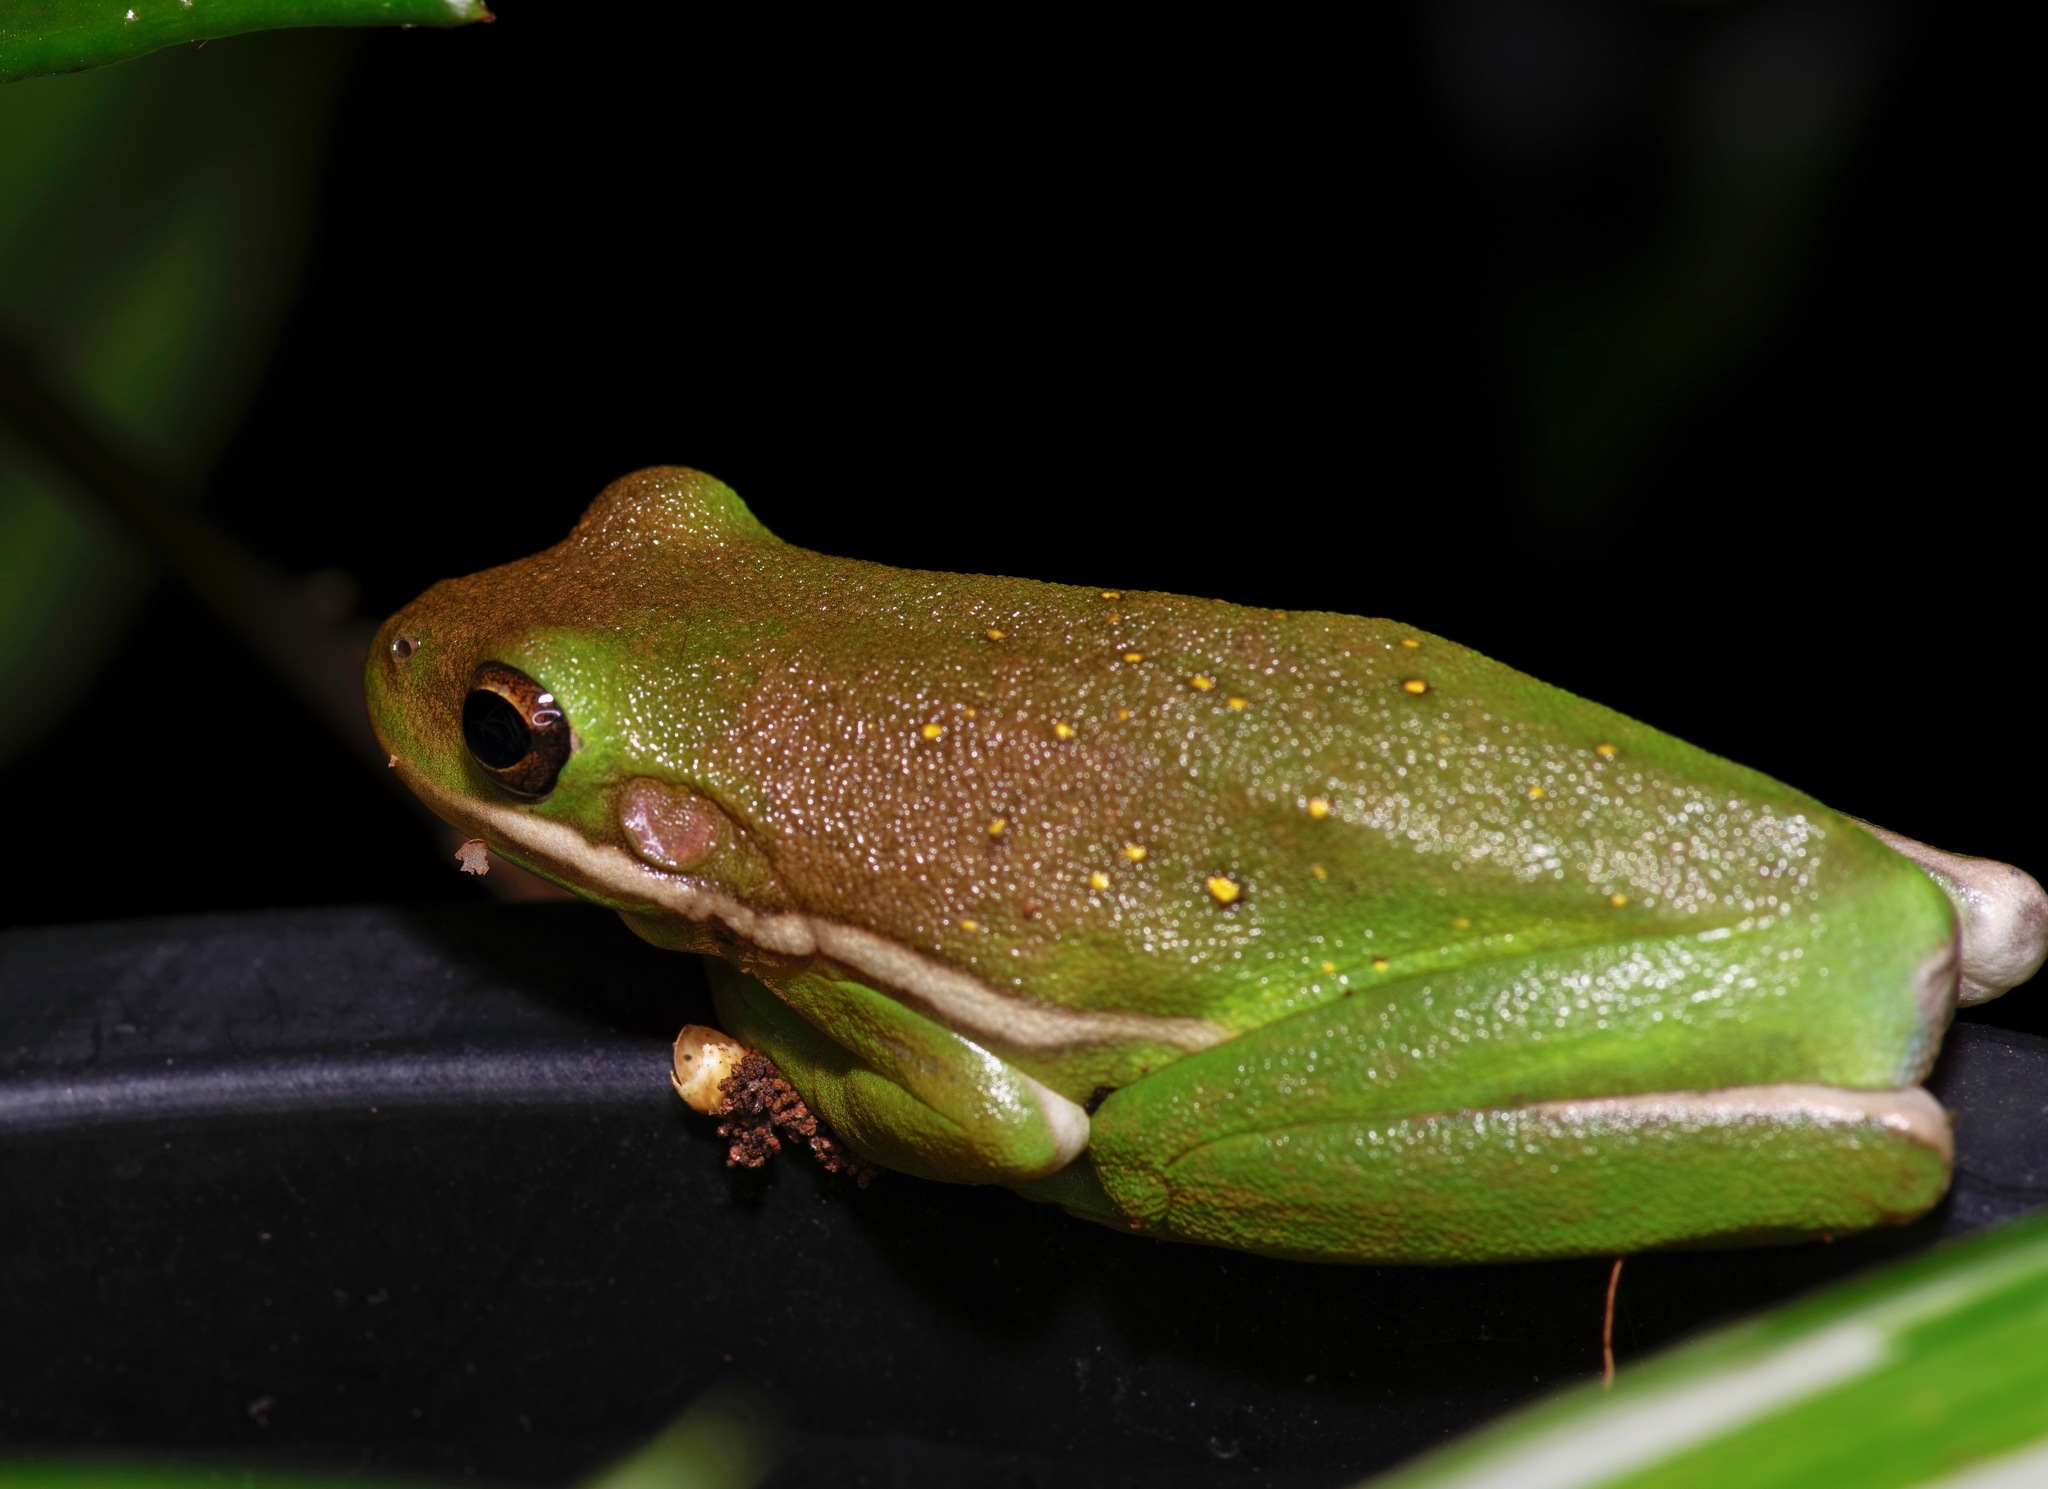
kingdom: Animalia
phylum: Chordata
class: Amphibia
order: Anura
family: Hylidae
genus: Dryophytes
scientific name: Dryophytes cinereus
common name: Green treefrog
